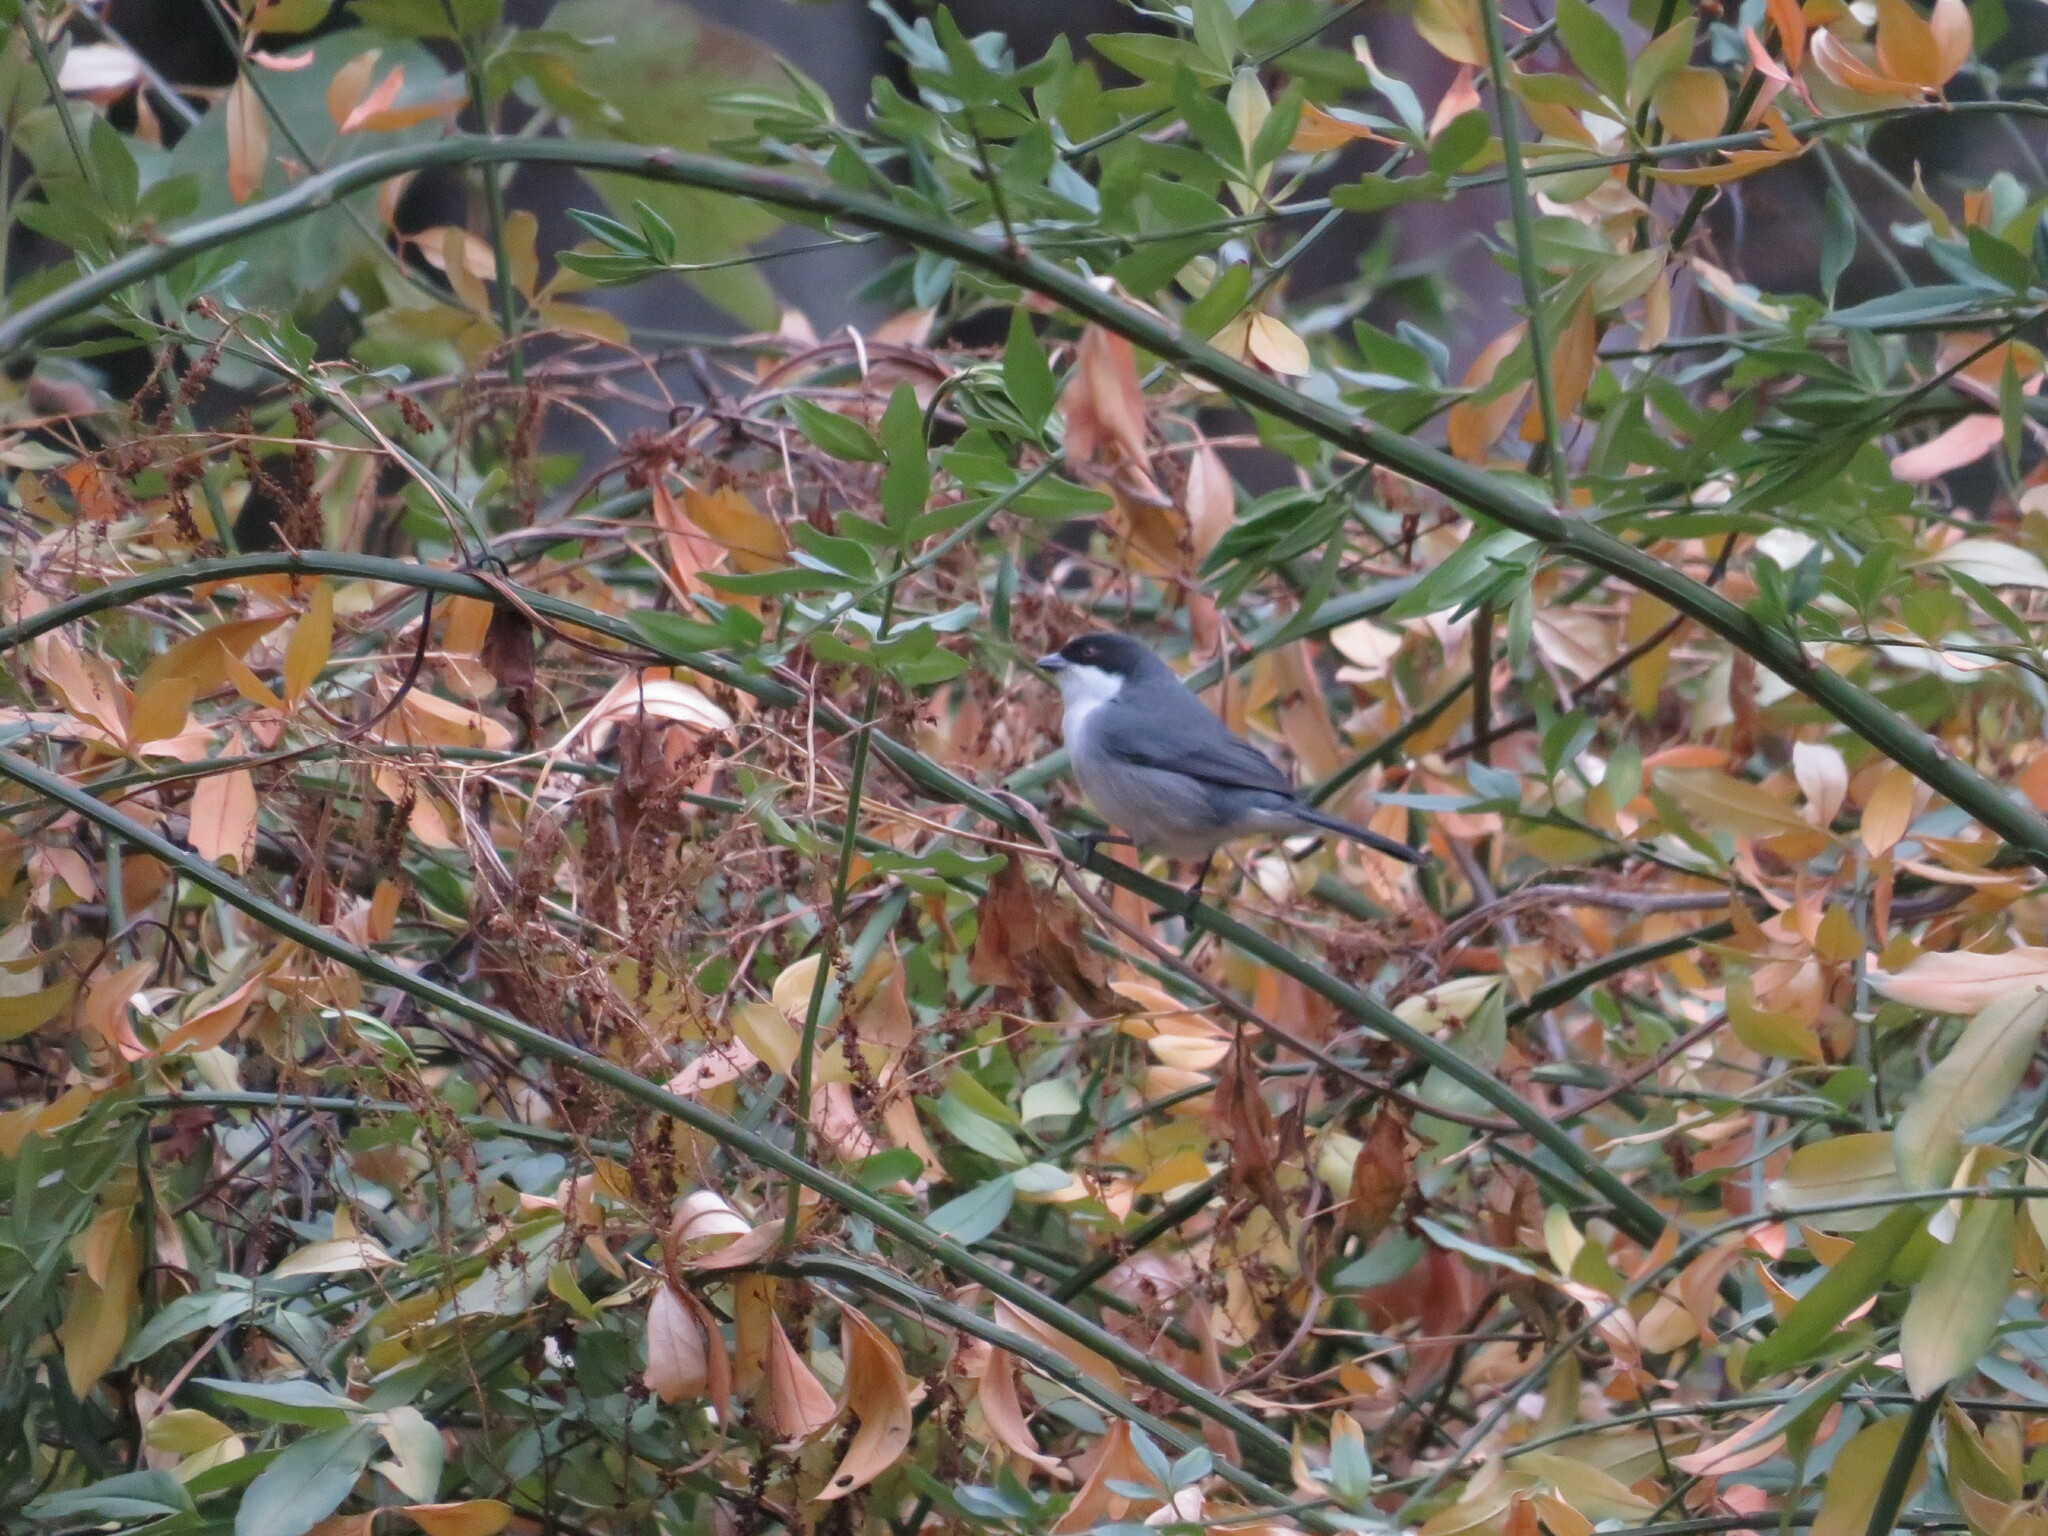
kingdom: Animalia
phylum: Chordata
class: Aves
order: Passeriformes
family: Thraupidae
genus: Microspingus
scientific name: Microspingus melanoleucus
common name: Black-capped warbling-finch
